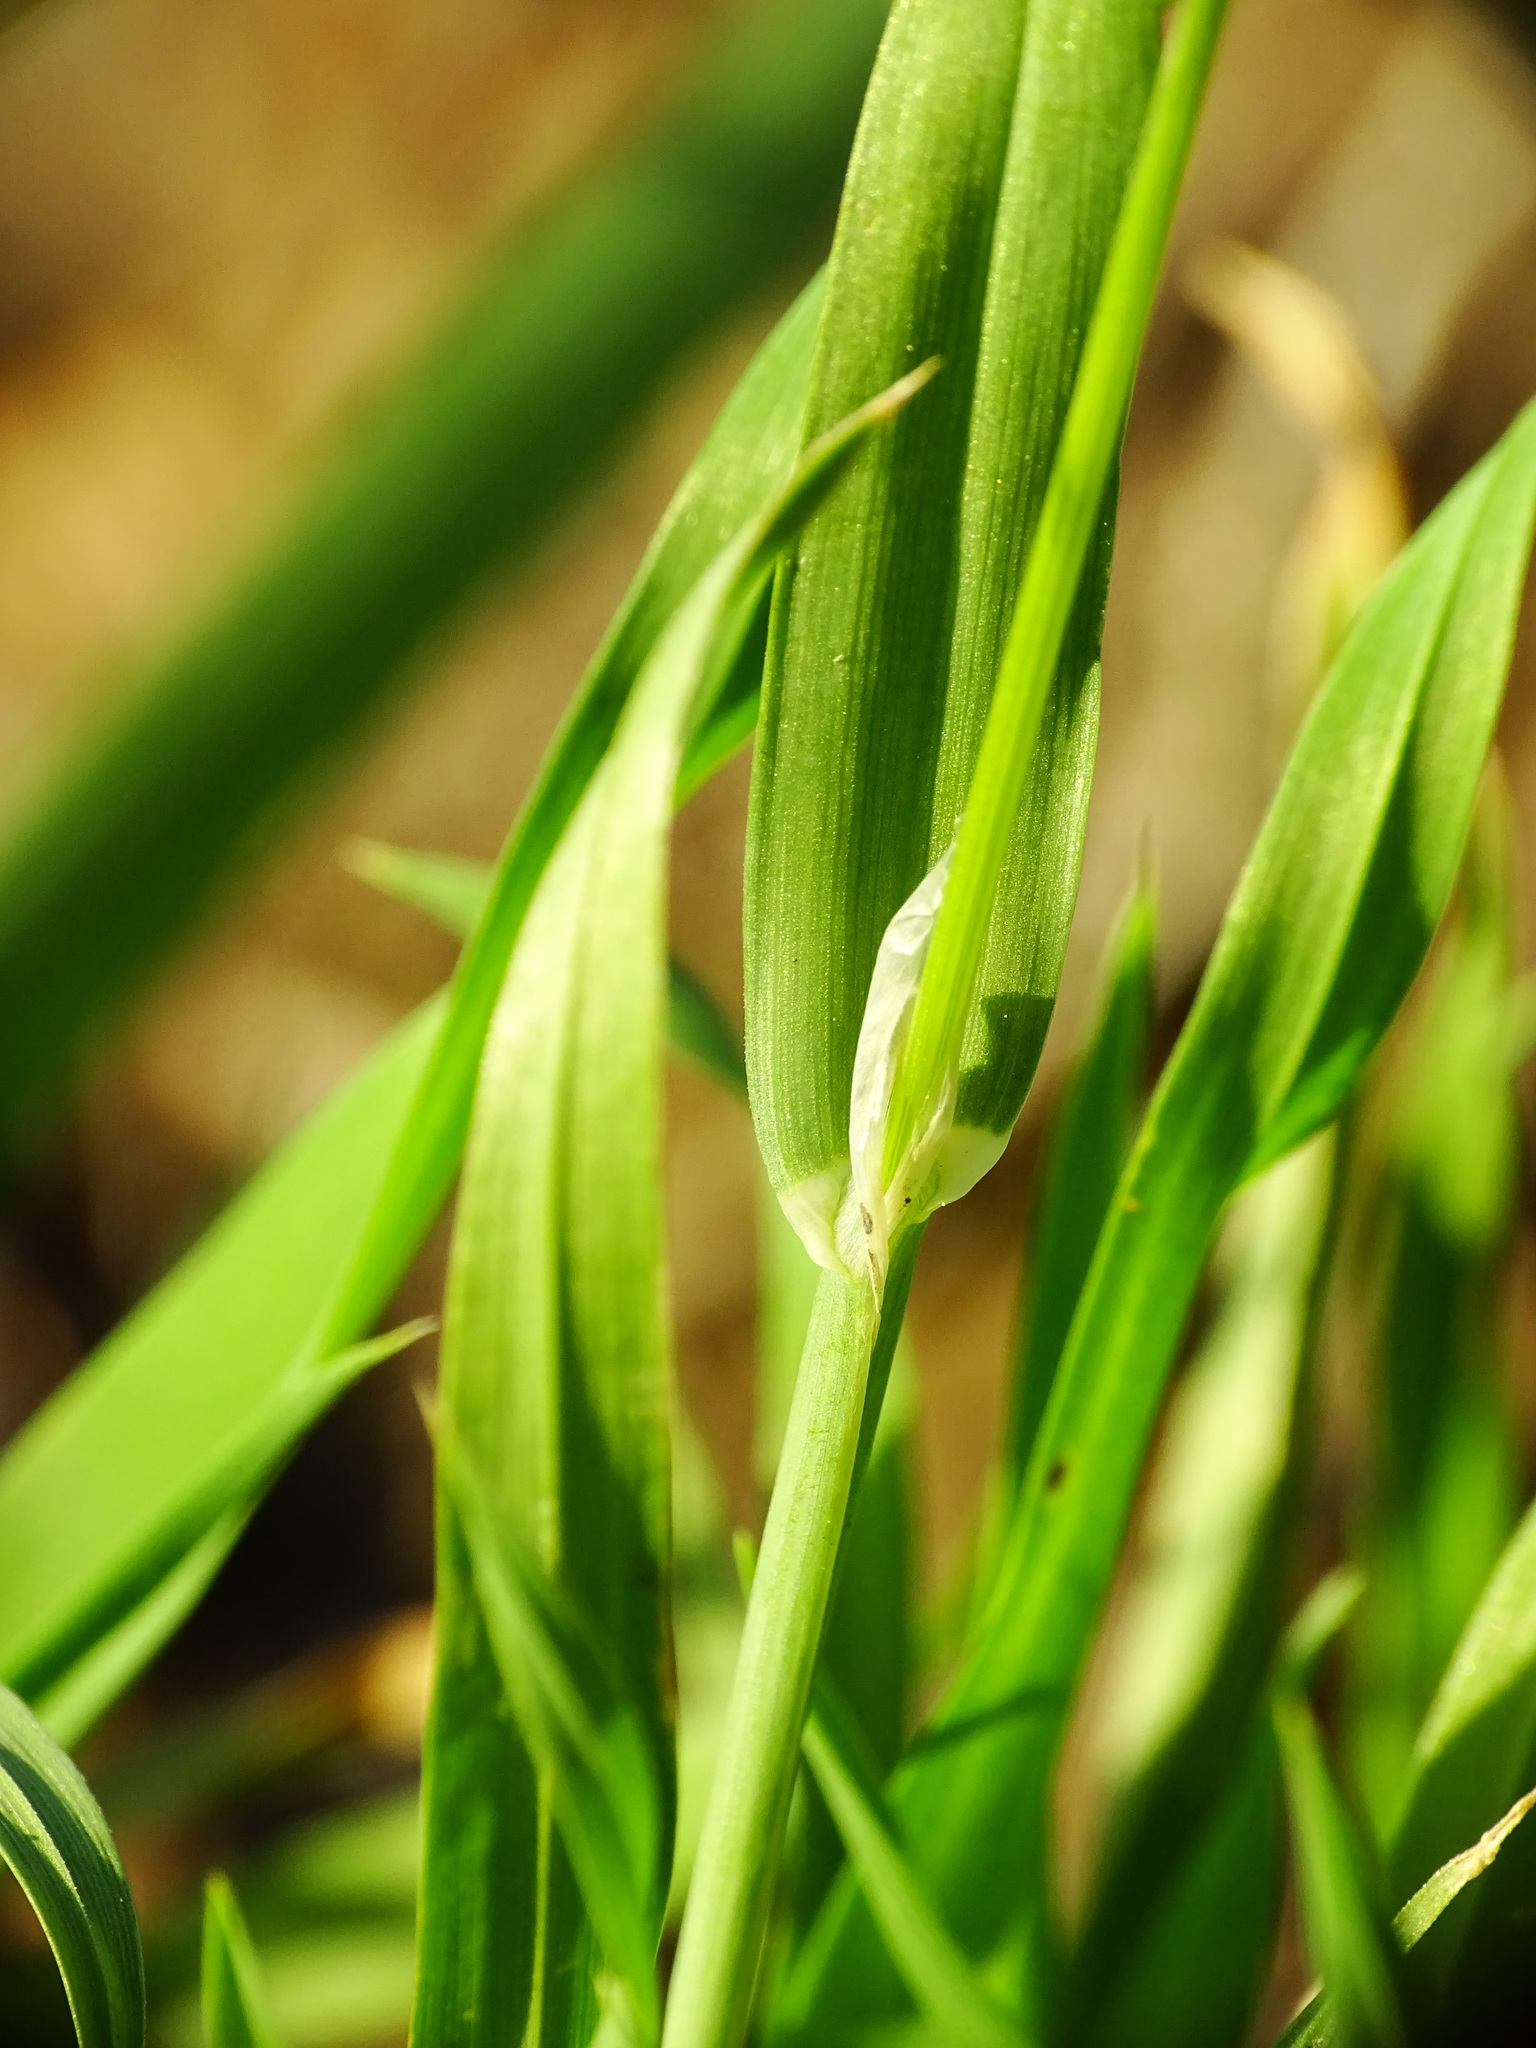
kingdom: Plantae
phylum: Tracheophyta
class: Liliopsida
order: Poales
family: Poaceae
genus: Lamarckia
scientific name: Lamarckia aurea
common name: Golden dog's-tail
